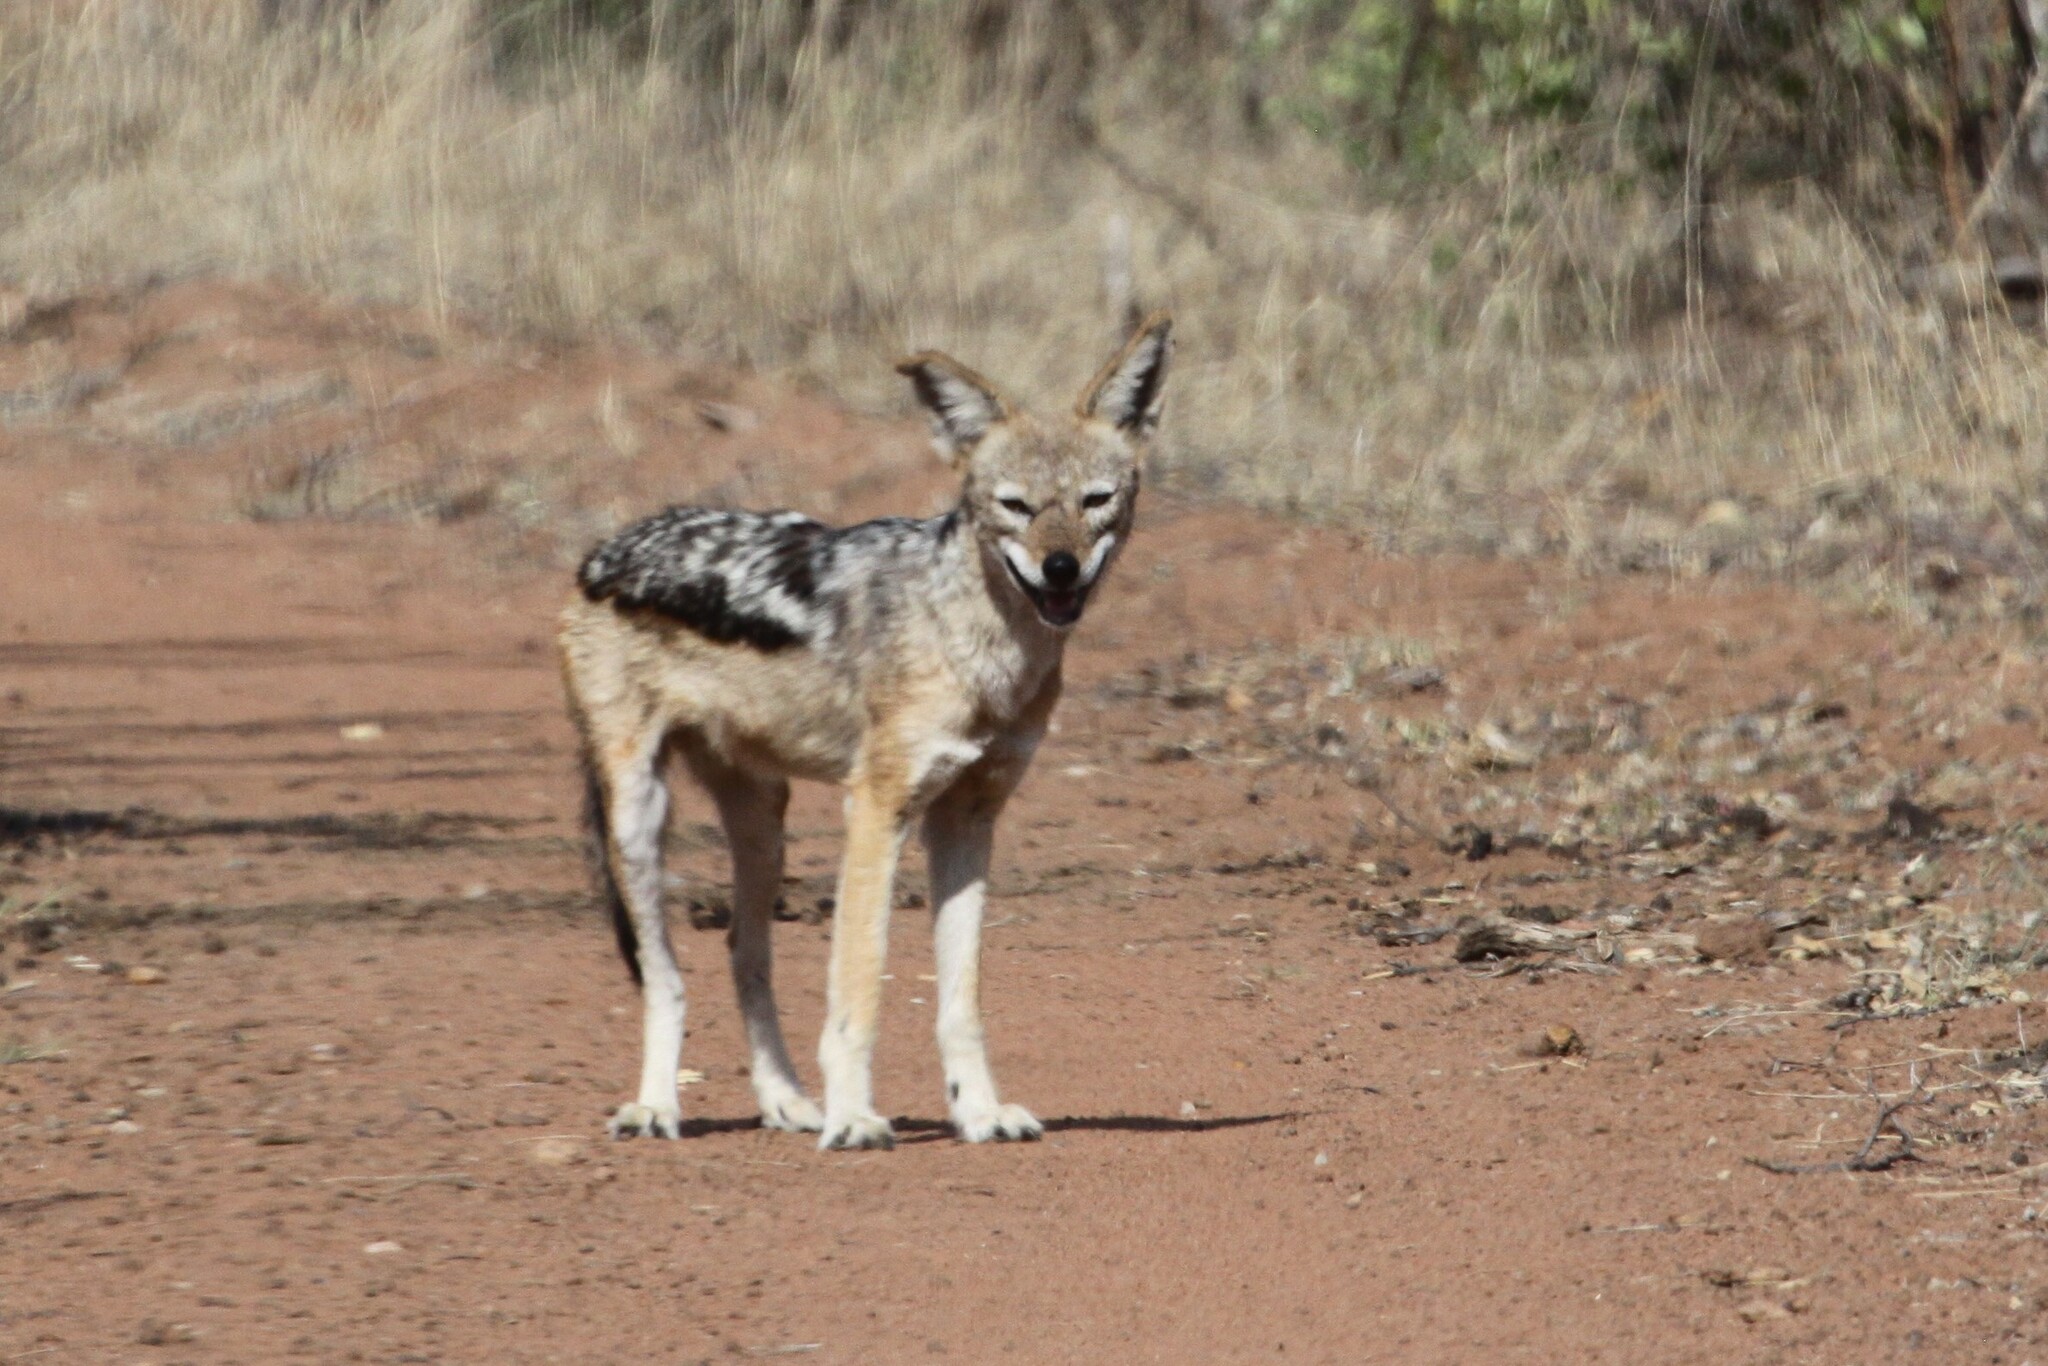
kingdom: Animalia
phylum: Chordata
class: Mammalia
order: Carnivora
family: Canidae
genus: Lupulella
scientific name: Lupulella
